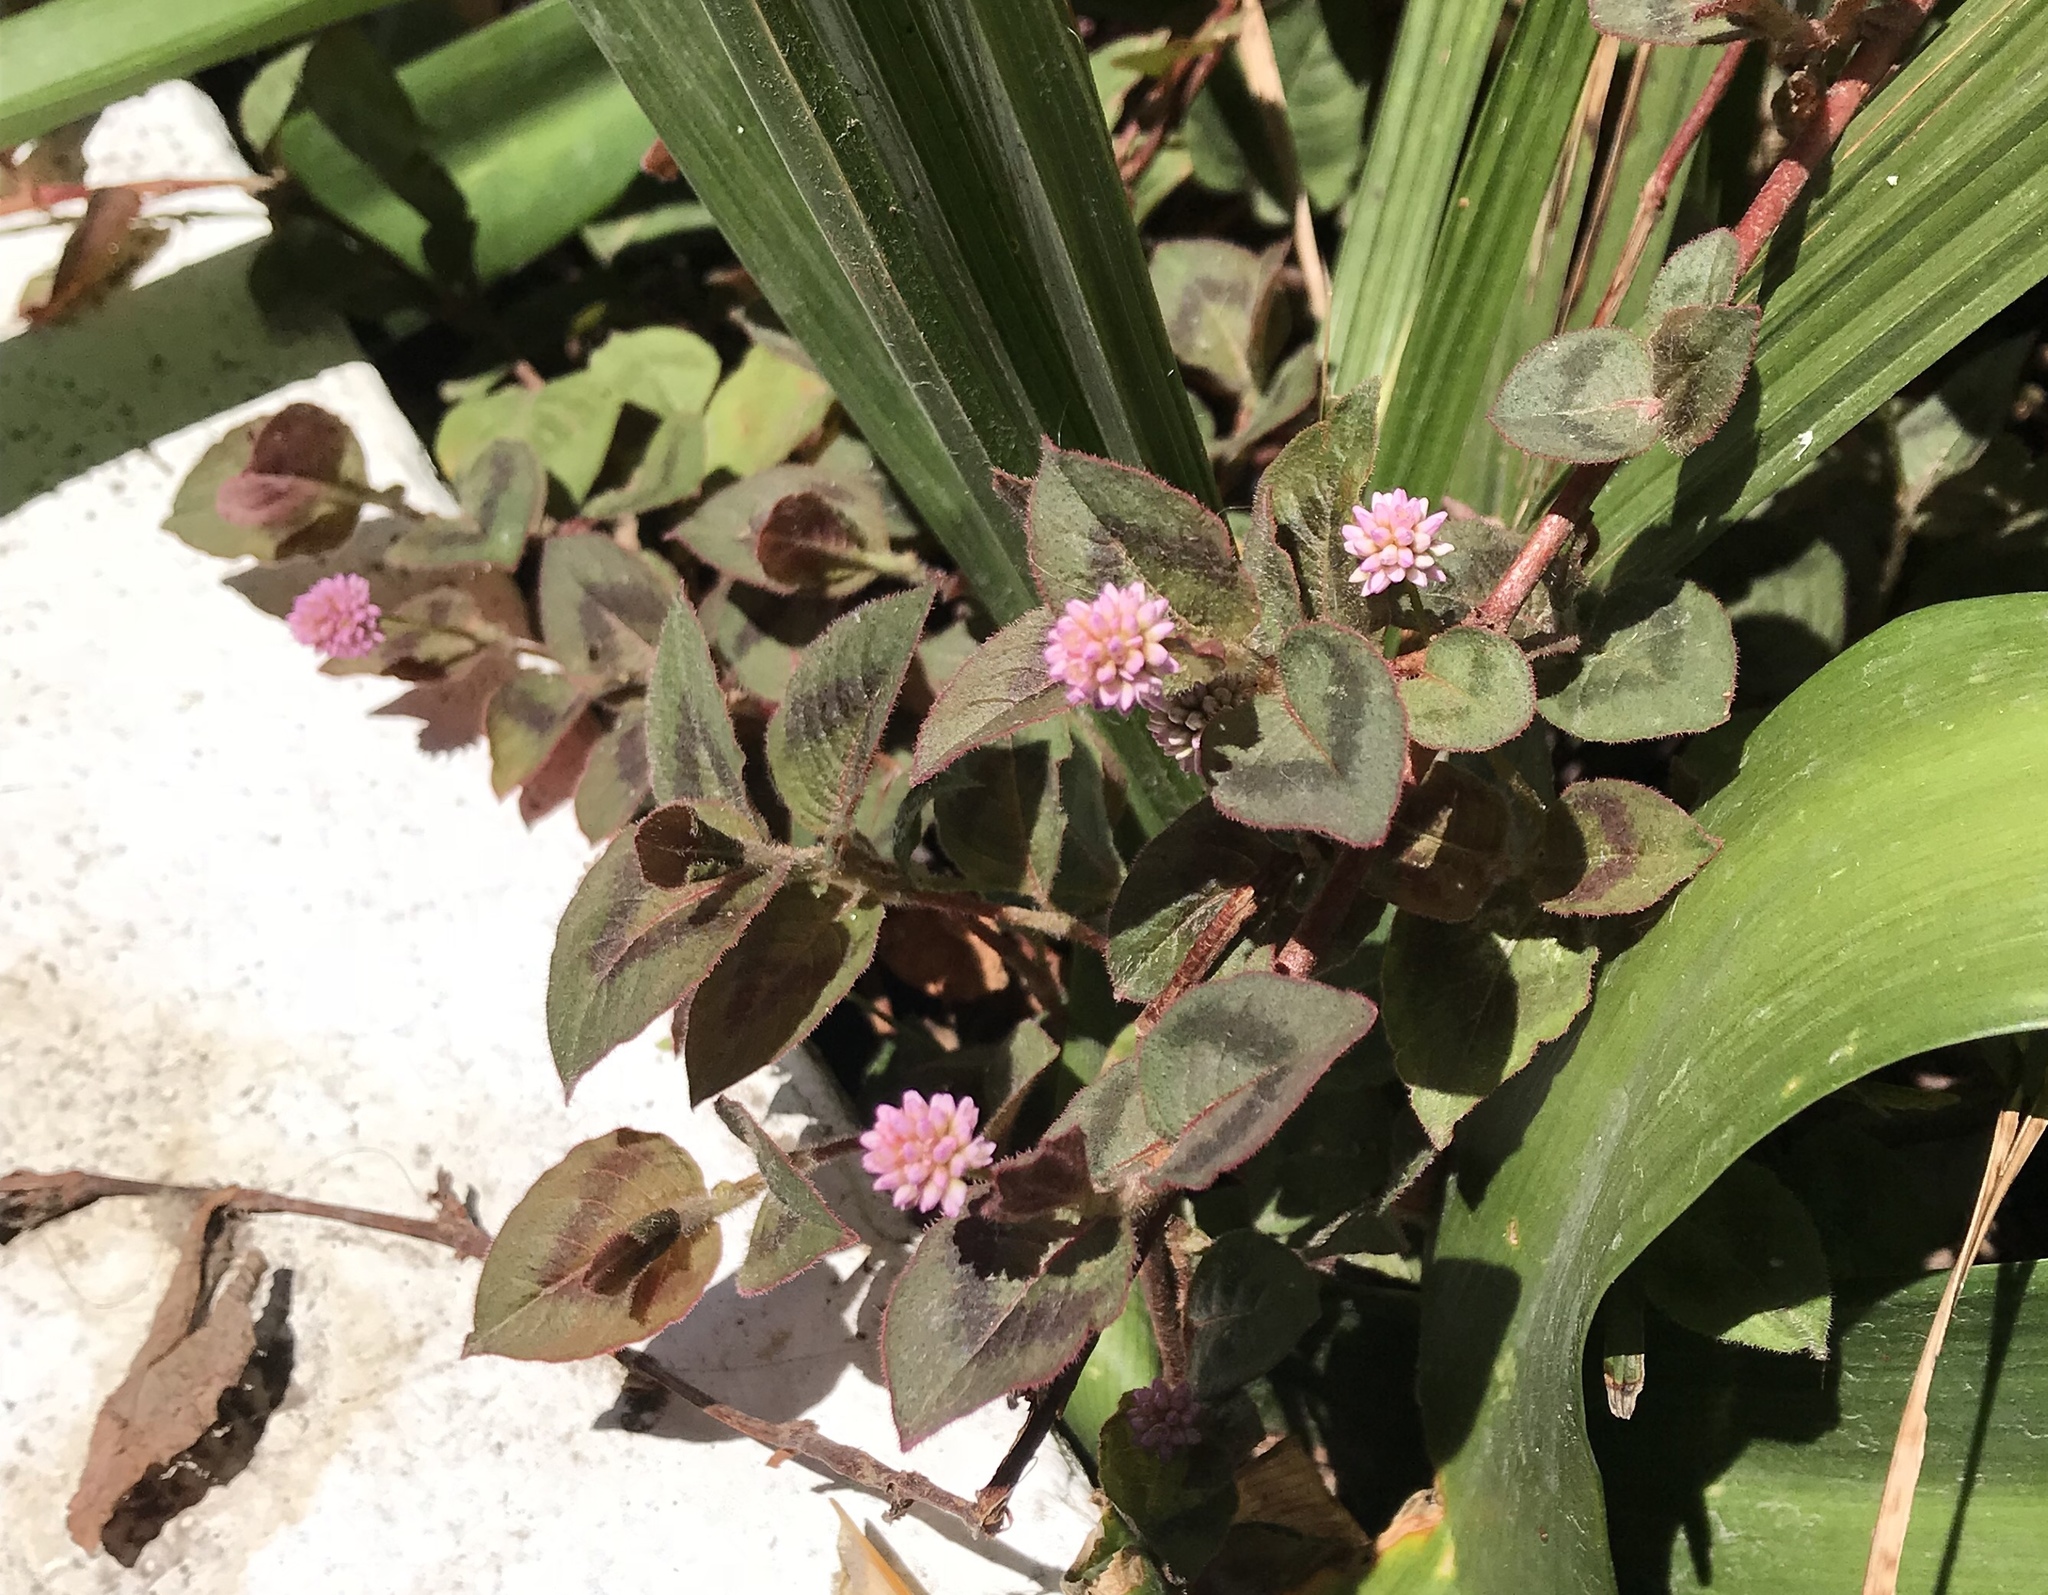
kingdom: Plantae
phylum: Tracheophyta
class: Magnoliopsida
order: Caryophyllales
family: Polygonaceae
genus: Persicaria
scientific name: Persicaria capitata
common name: Pinkhead smartweed
